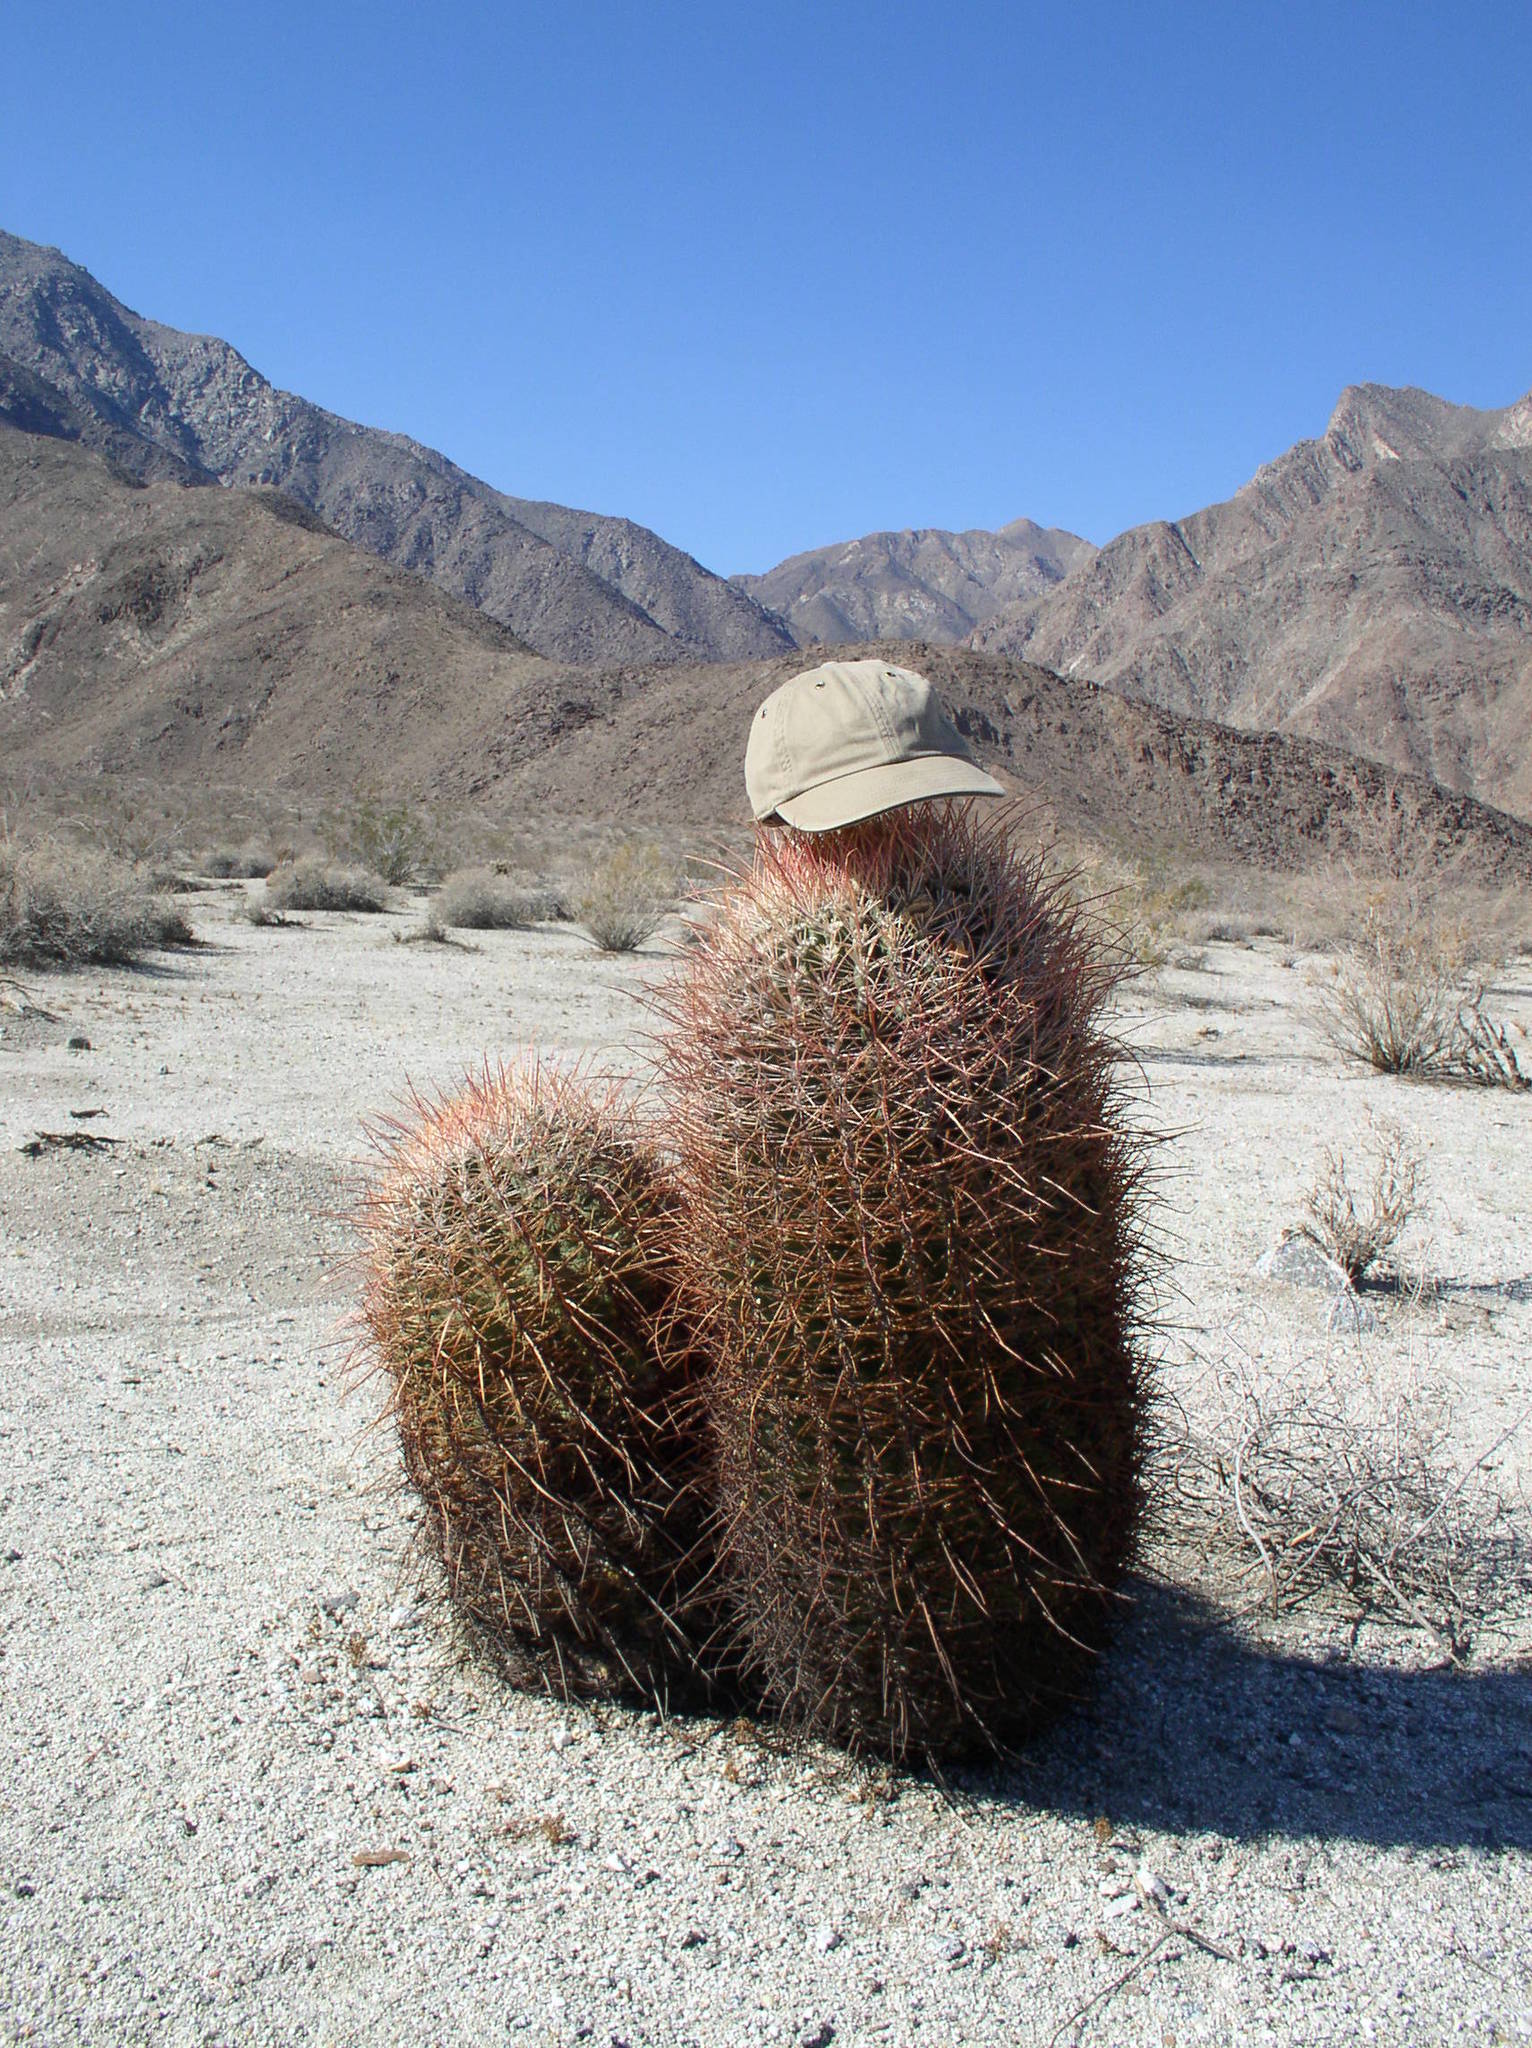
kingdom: Plantae
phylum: Tracheophyta
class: Magnoliopsida
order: Caryophyllales
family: Cactaceae
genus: Ferocactus
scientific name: Ferocactus cylindraceus
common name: California barrel cactus
